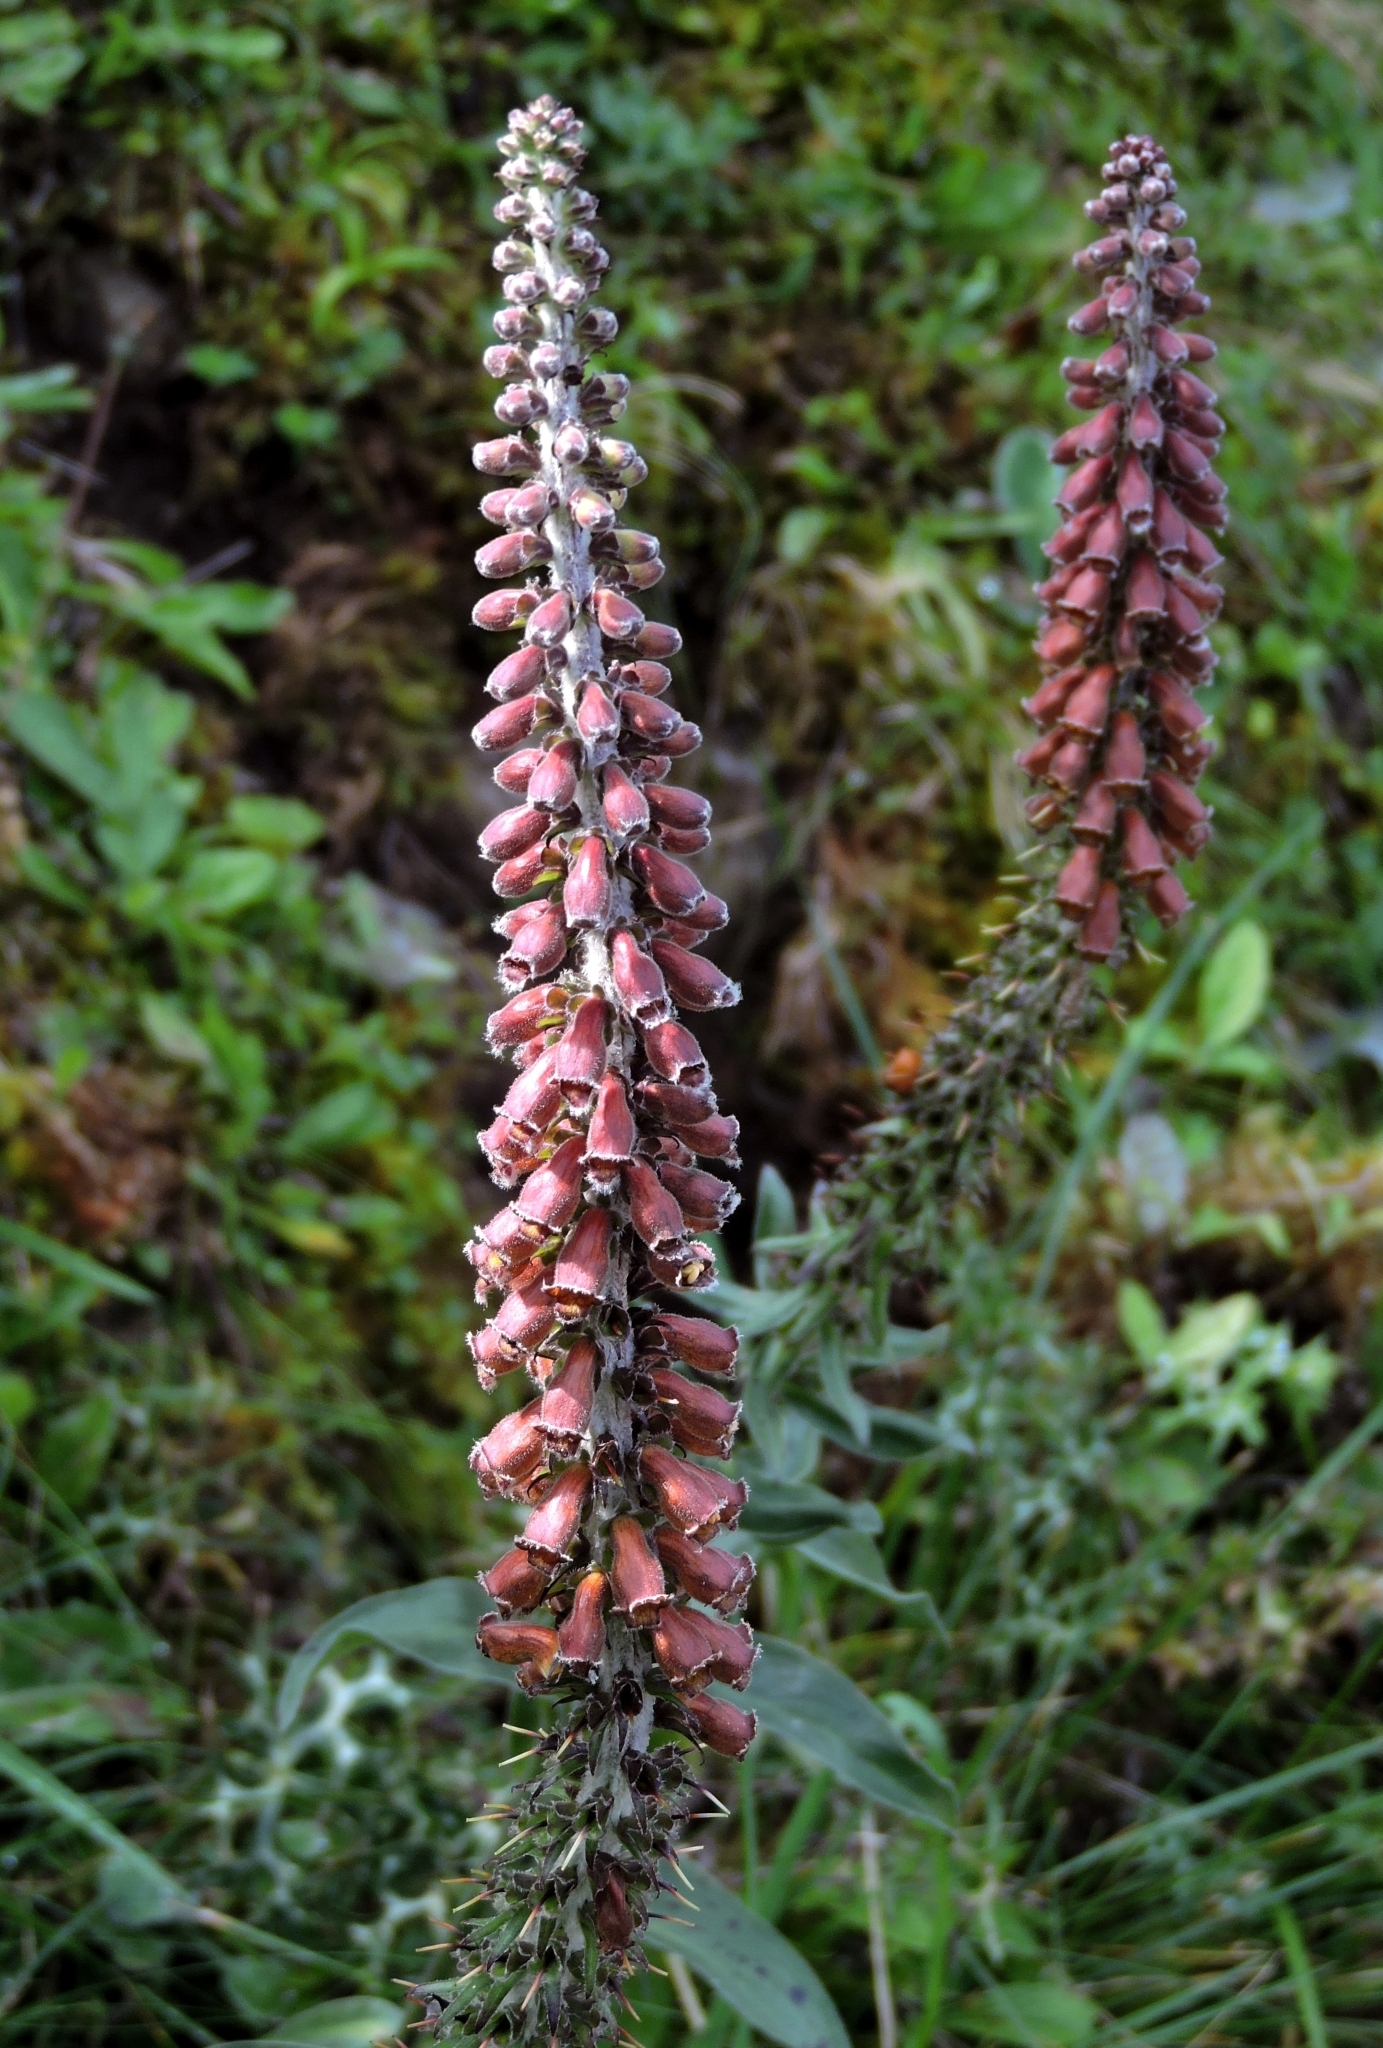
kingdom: Plantae
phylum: Tracheophyta
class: Magnoliopsida
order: Lamiales
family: Plantaginaceae
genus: Digitalis
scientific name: Digitalis parviflora
